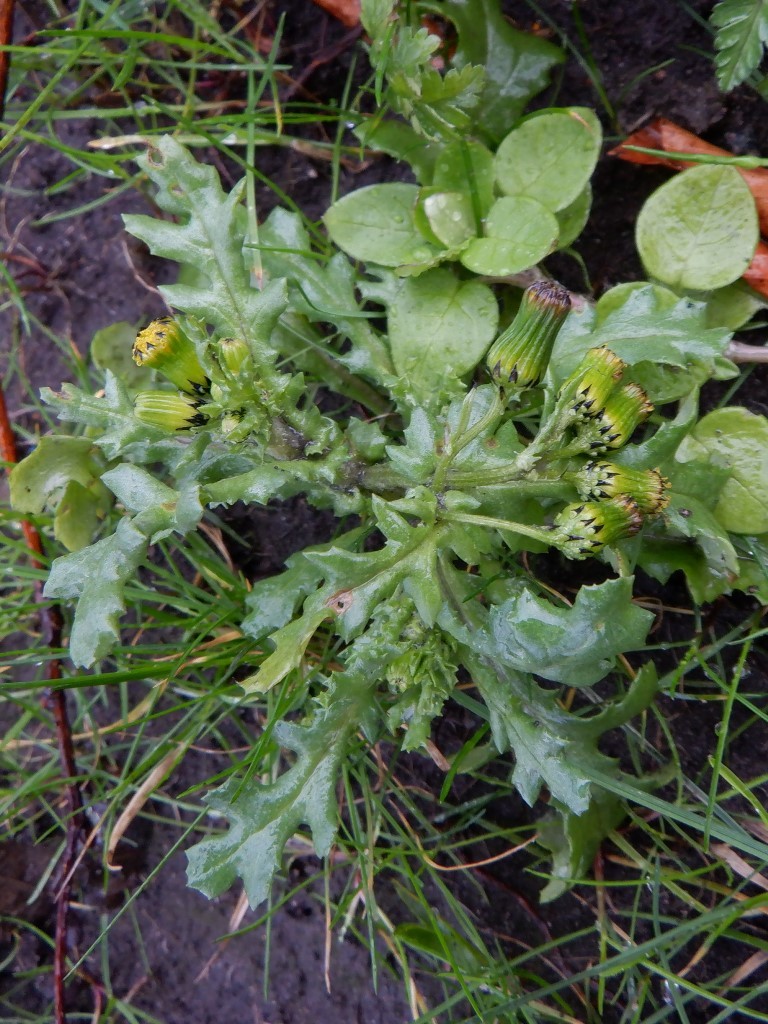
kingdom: Plantae
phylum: Tracheophyta
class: Magnoliopsida
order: Asterales
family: Asteraceae
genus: Senecio
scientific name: Senecio vulgaris
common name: Old-man-in-the-spring
